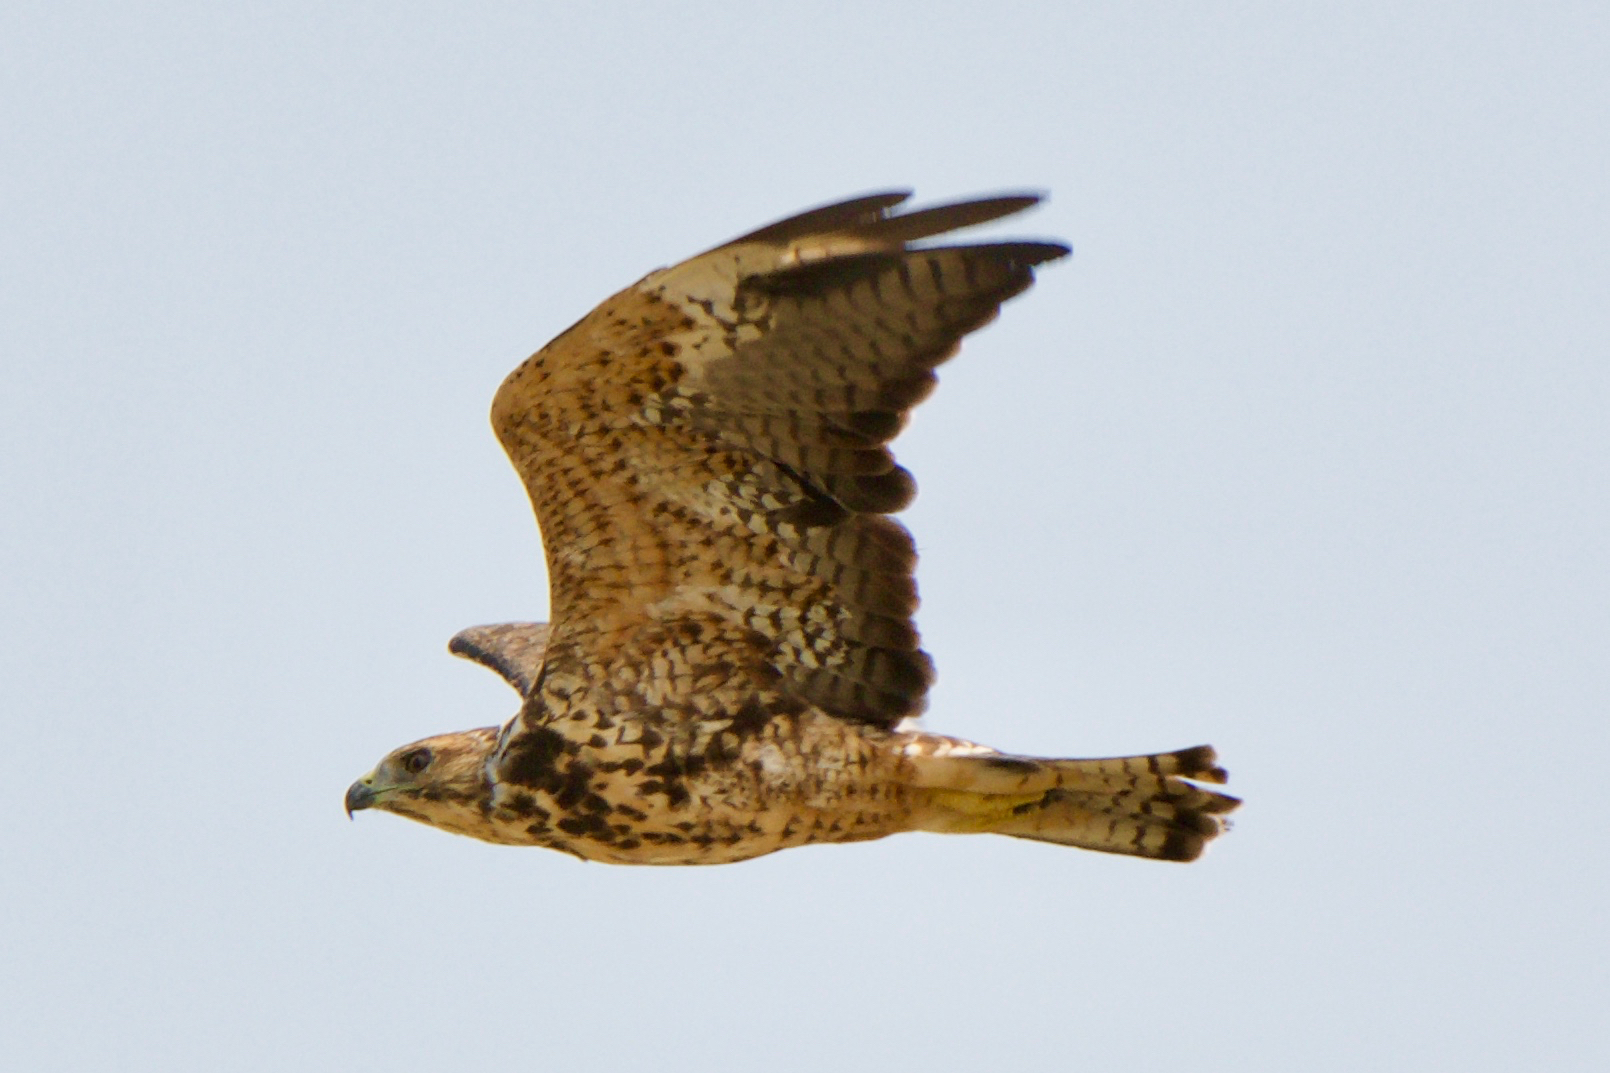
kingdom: Animalia
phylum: Chordata
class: Aves
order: Accipitriformes
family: Accipitridae
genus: Buteo
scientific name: Buteo swainsoni
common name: Swainson's hawk
